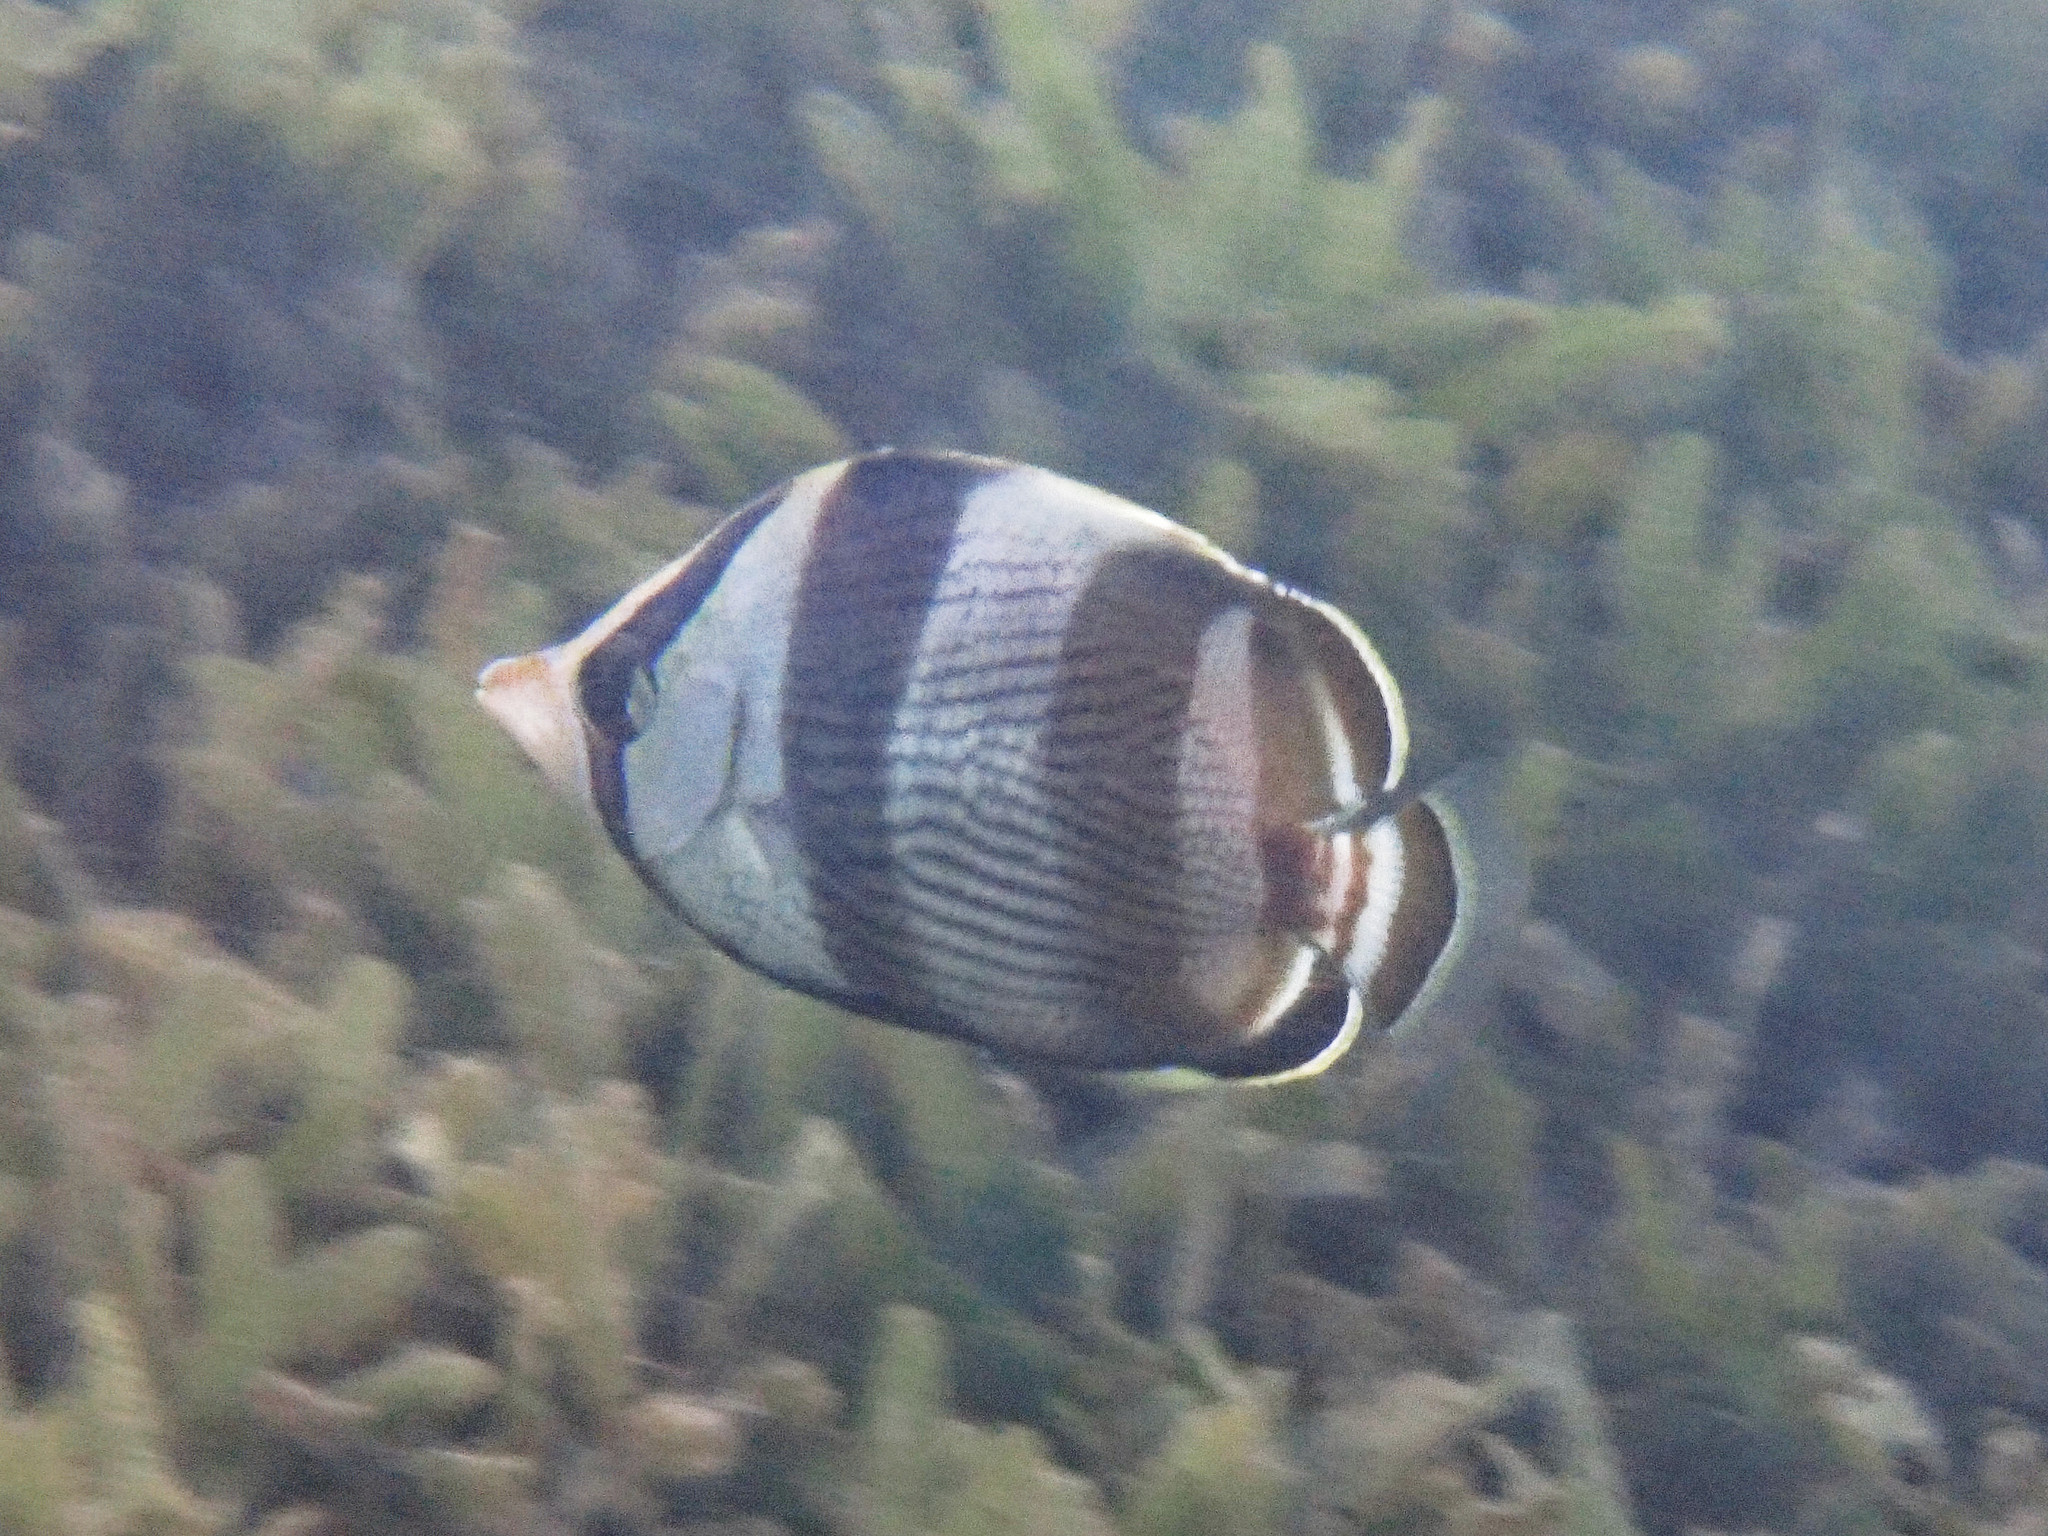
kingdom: Animalia
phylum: Chordata
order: Perciformes
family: Chaetodontidae
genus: Chaetodon
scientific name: Chaetodon striatus
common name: Banded butterflyfish
